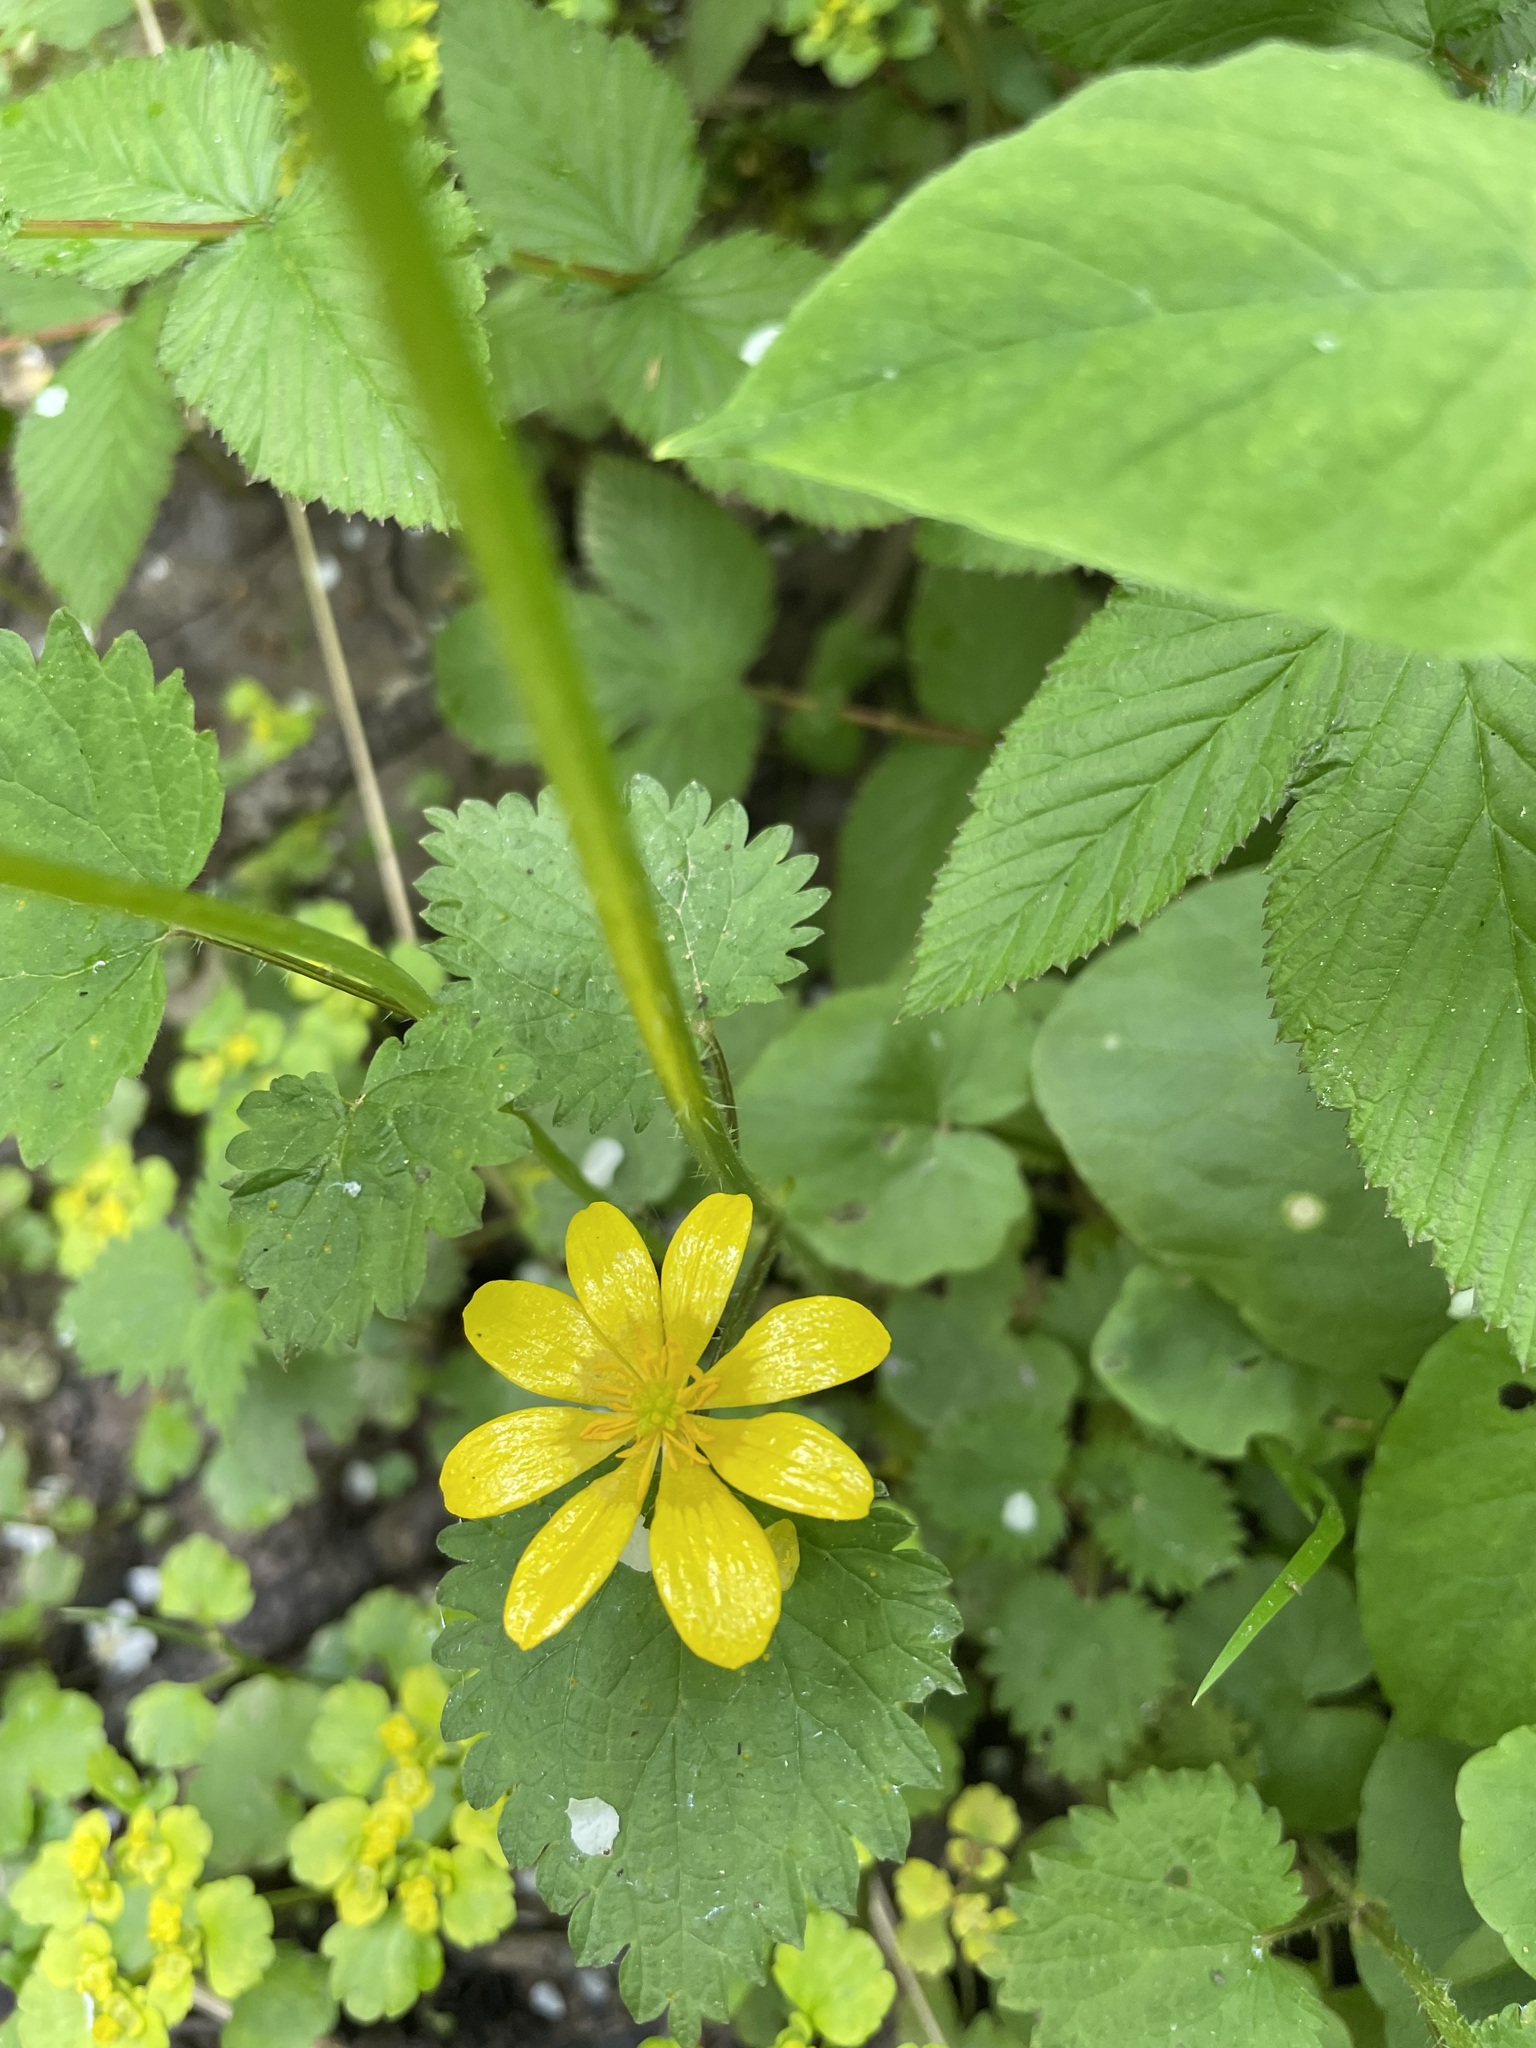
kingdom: Plantae
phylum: Tracheophyta
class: Magnoliopsida
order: Ranunculales
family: Ranunculaceae
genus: Ficaria
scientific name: Ficaria verna
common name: Lesser celandine
